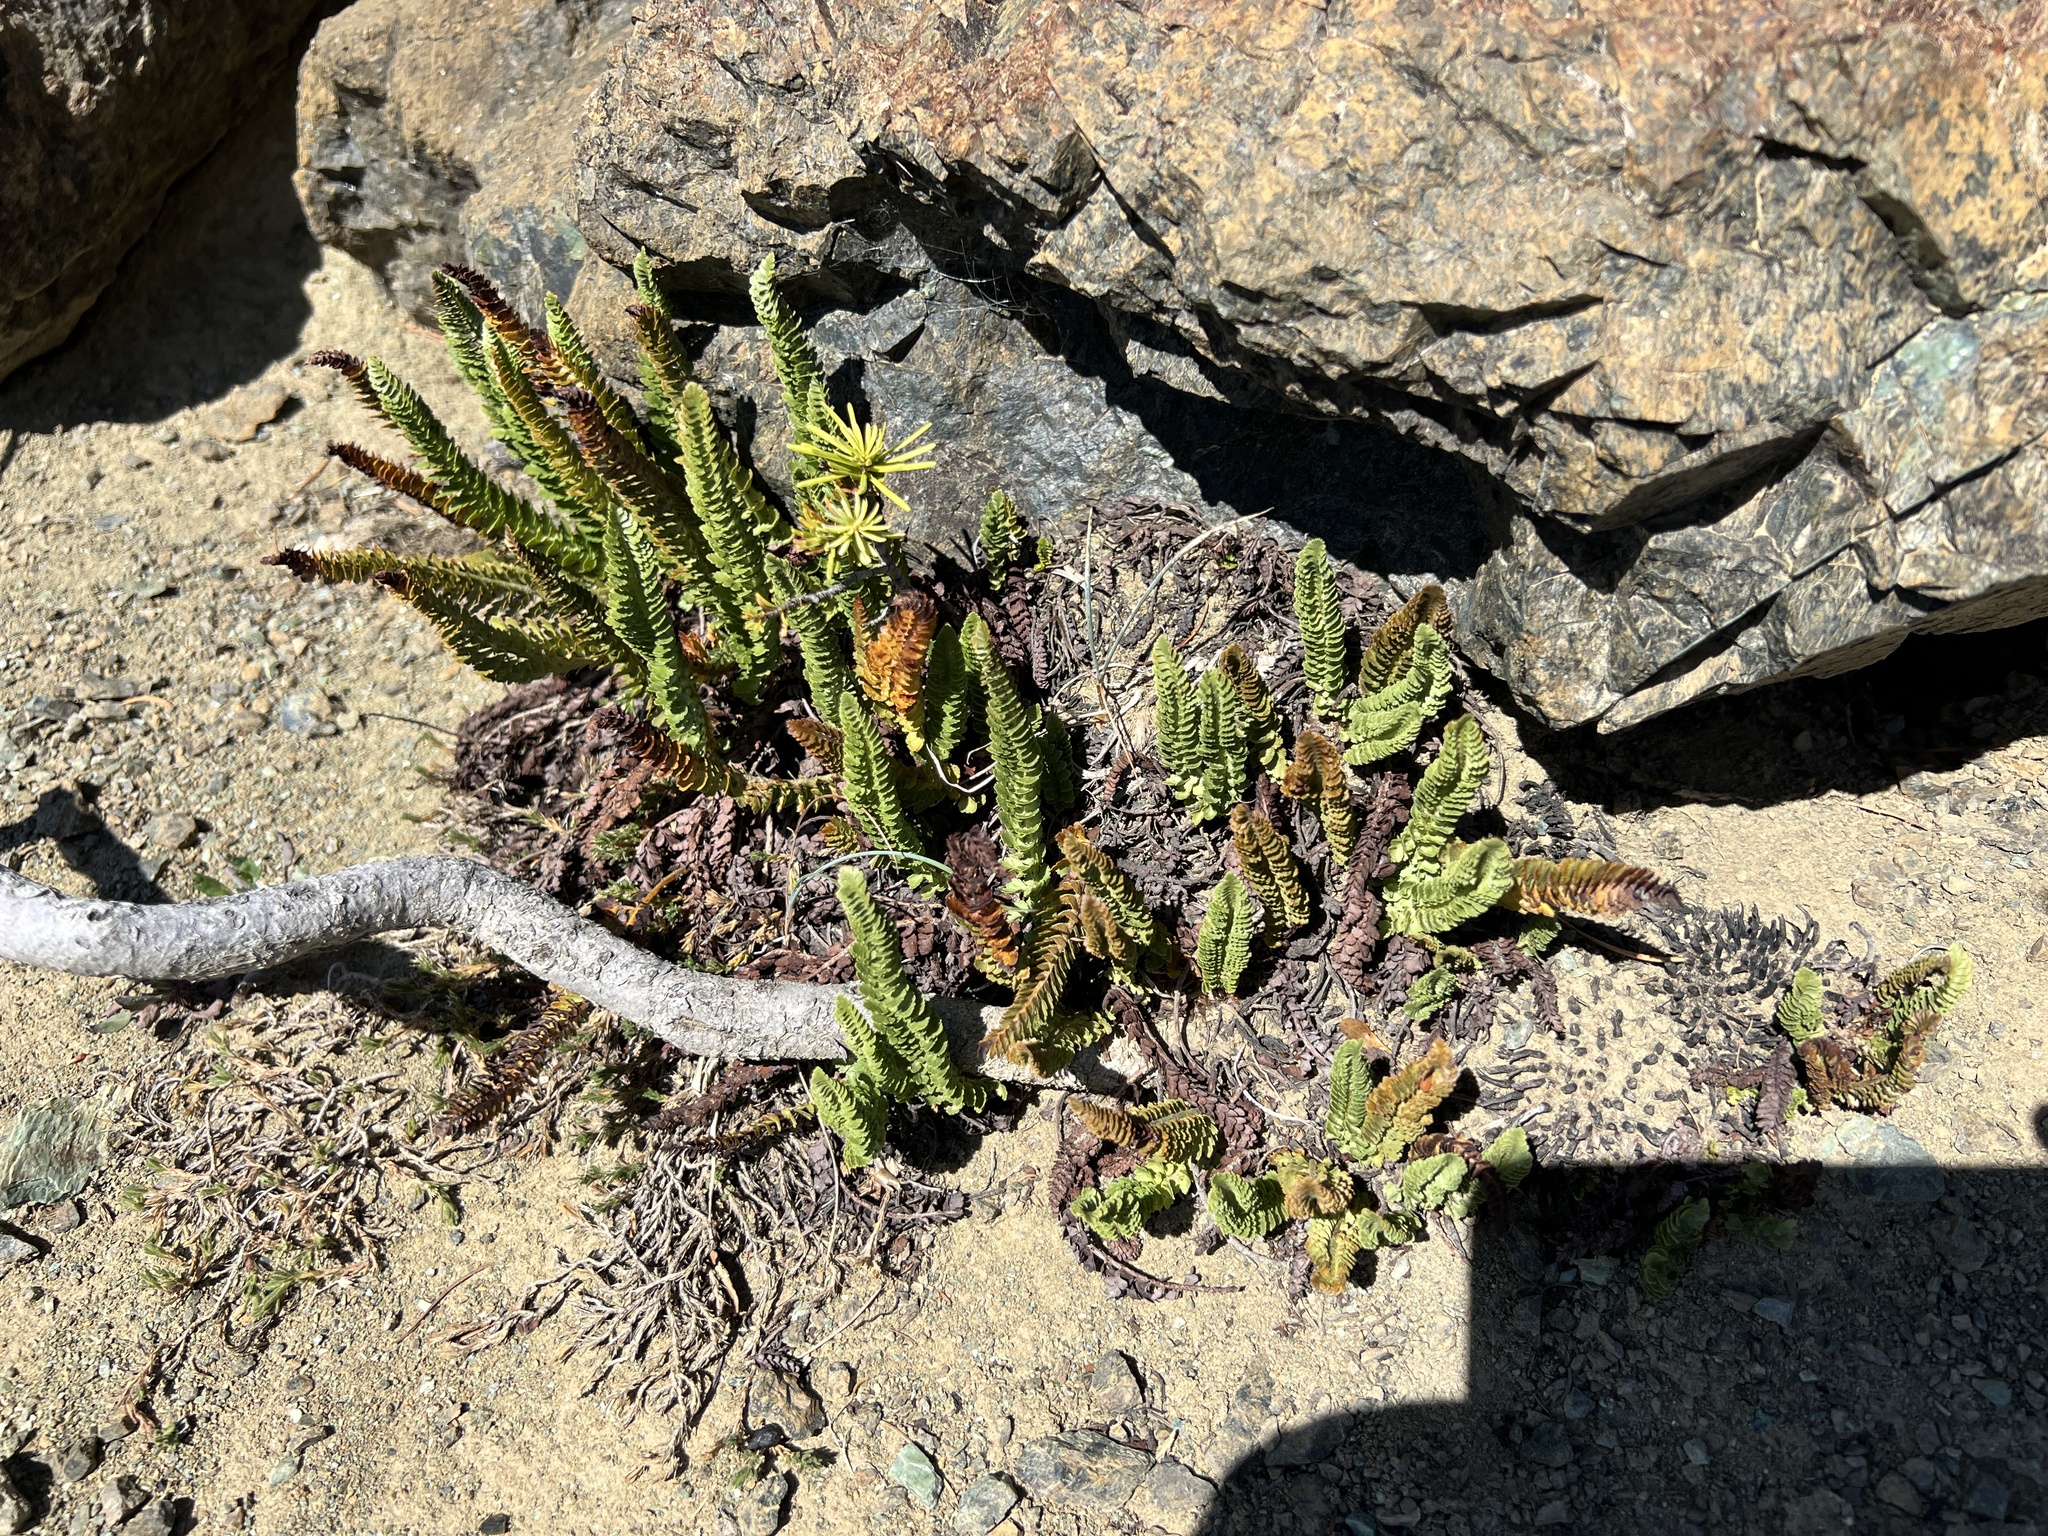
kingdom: Plantae
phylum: Tracheophyta
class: Polypodiopsida
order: Polypodiales
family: Dryopteridaceae
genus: Polystichum
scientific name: Polystichum lemmonii
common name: Lemmon's holly fern
